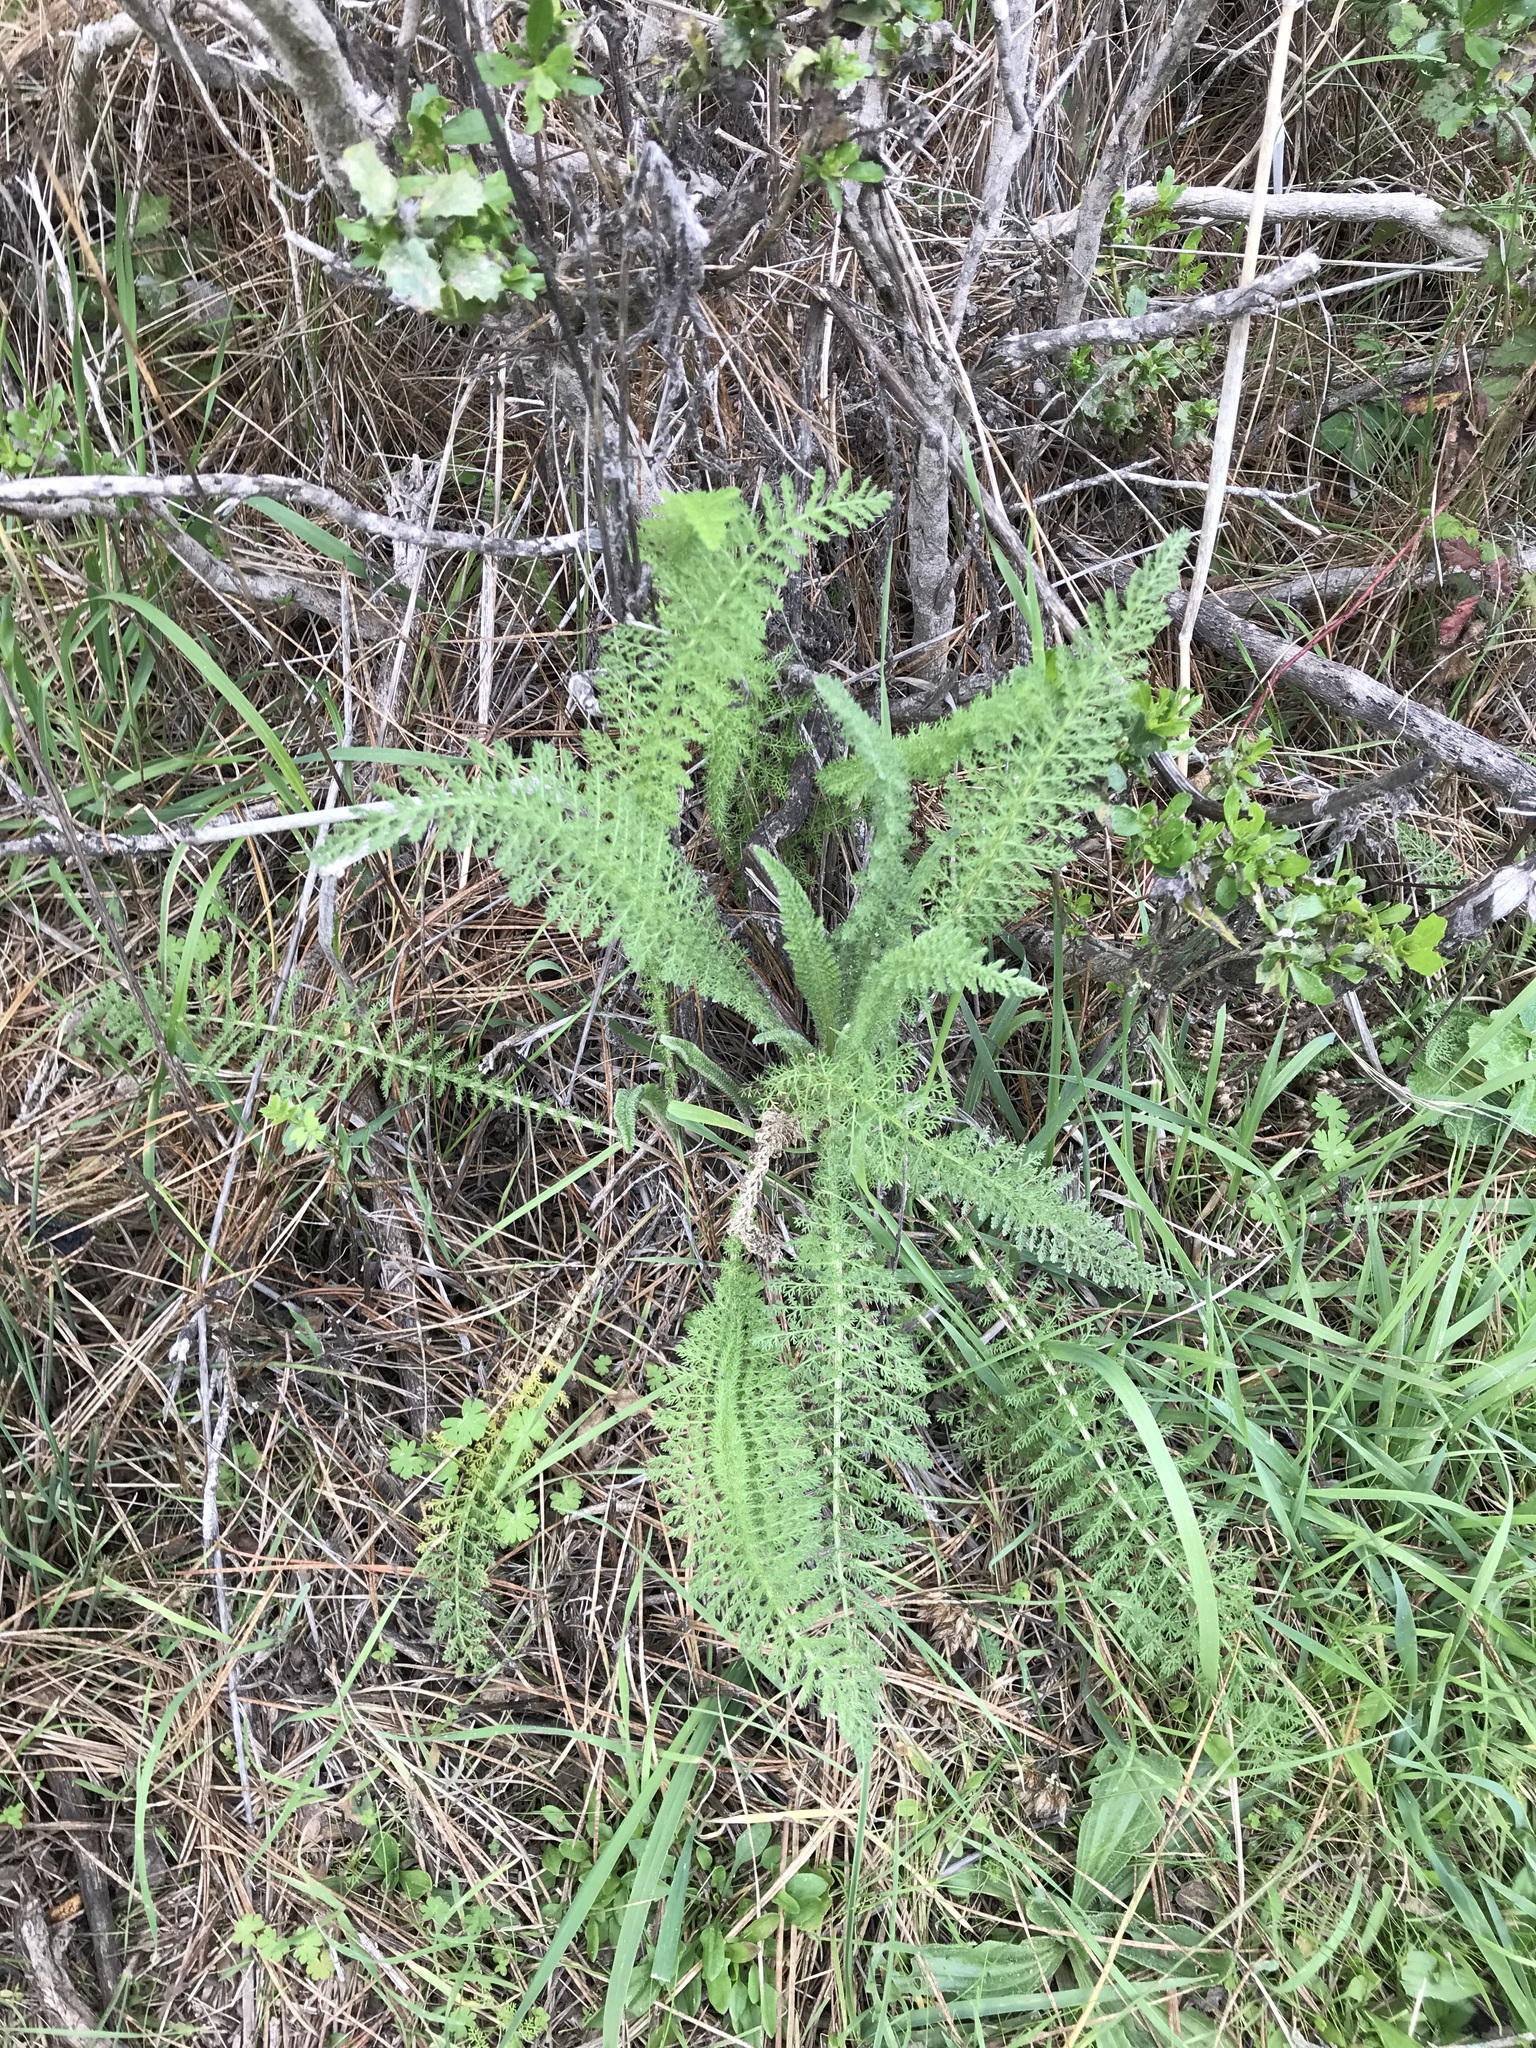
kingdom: Plantae
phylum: Tracheophyta
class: Magnoliopsida
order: Asterales
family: Asteraceae
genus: Achillea
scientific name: Achillea millefolium
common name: Yarrow
